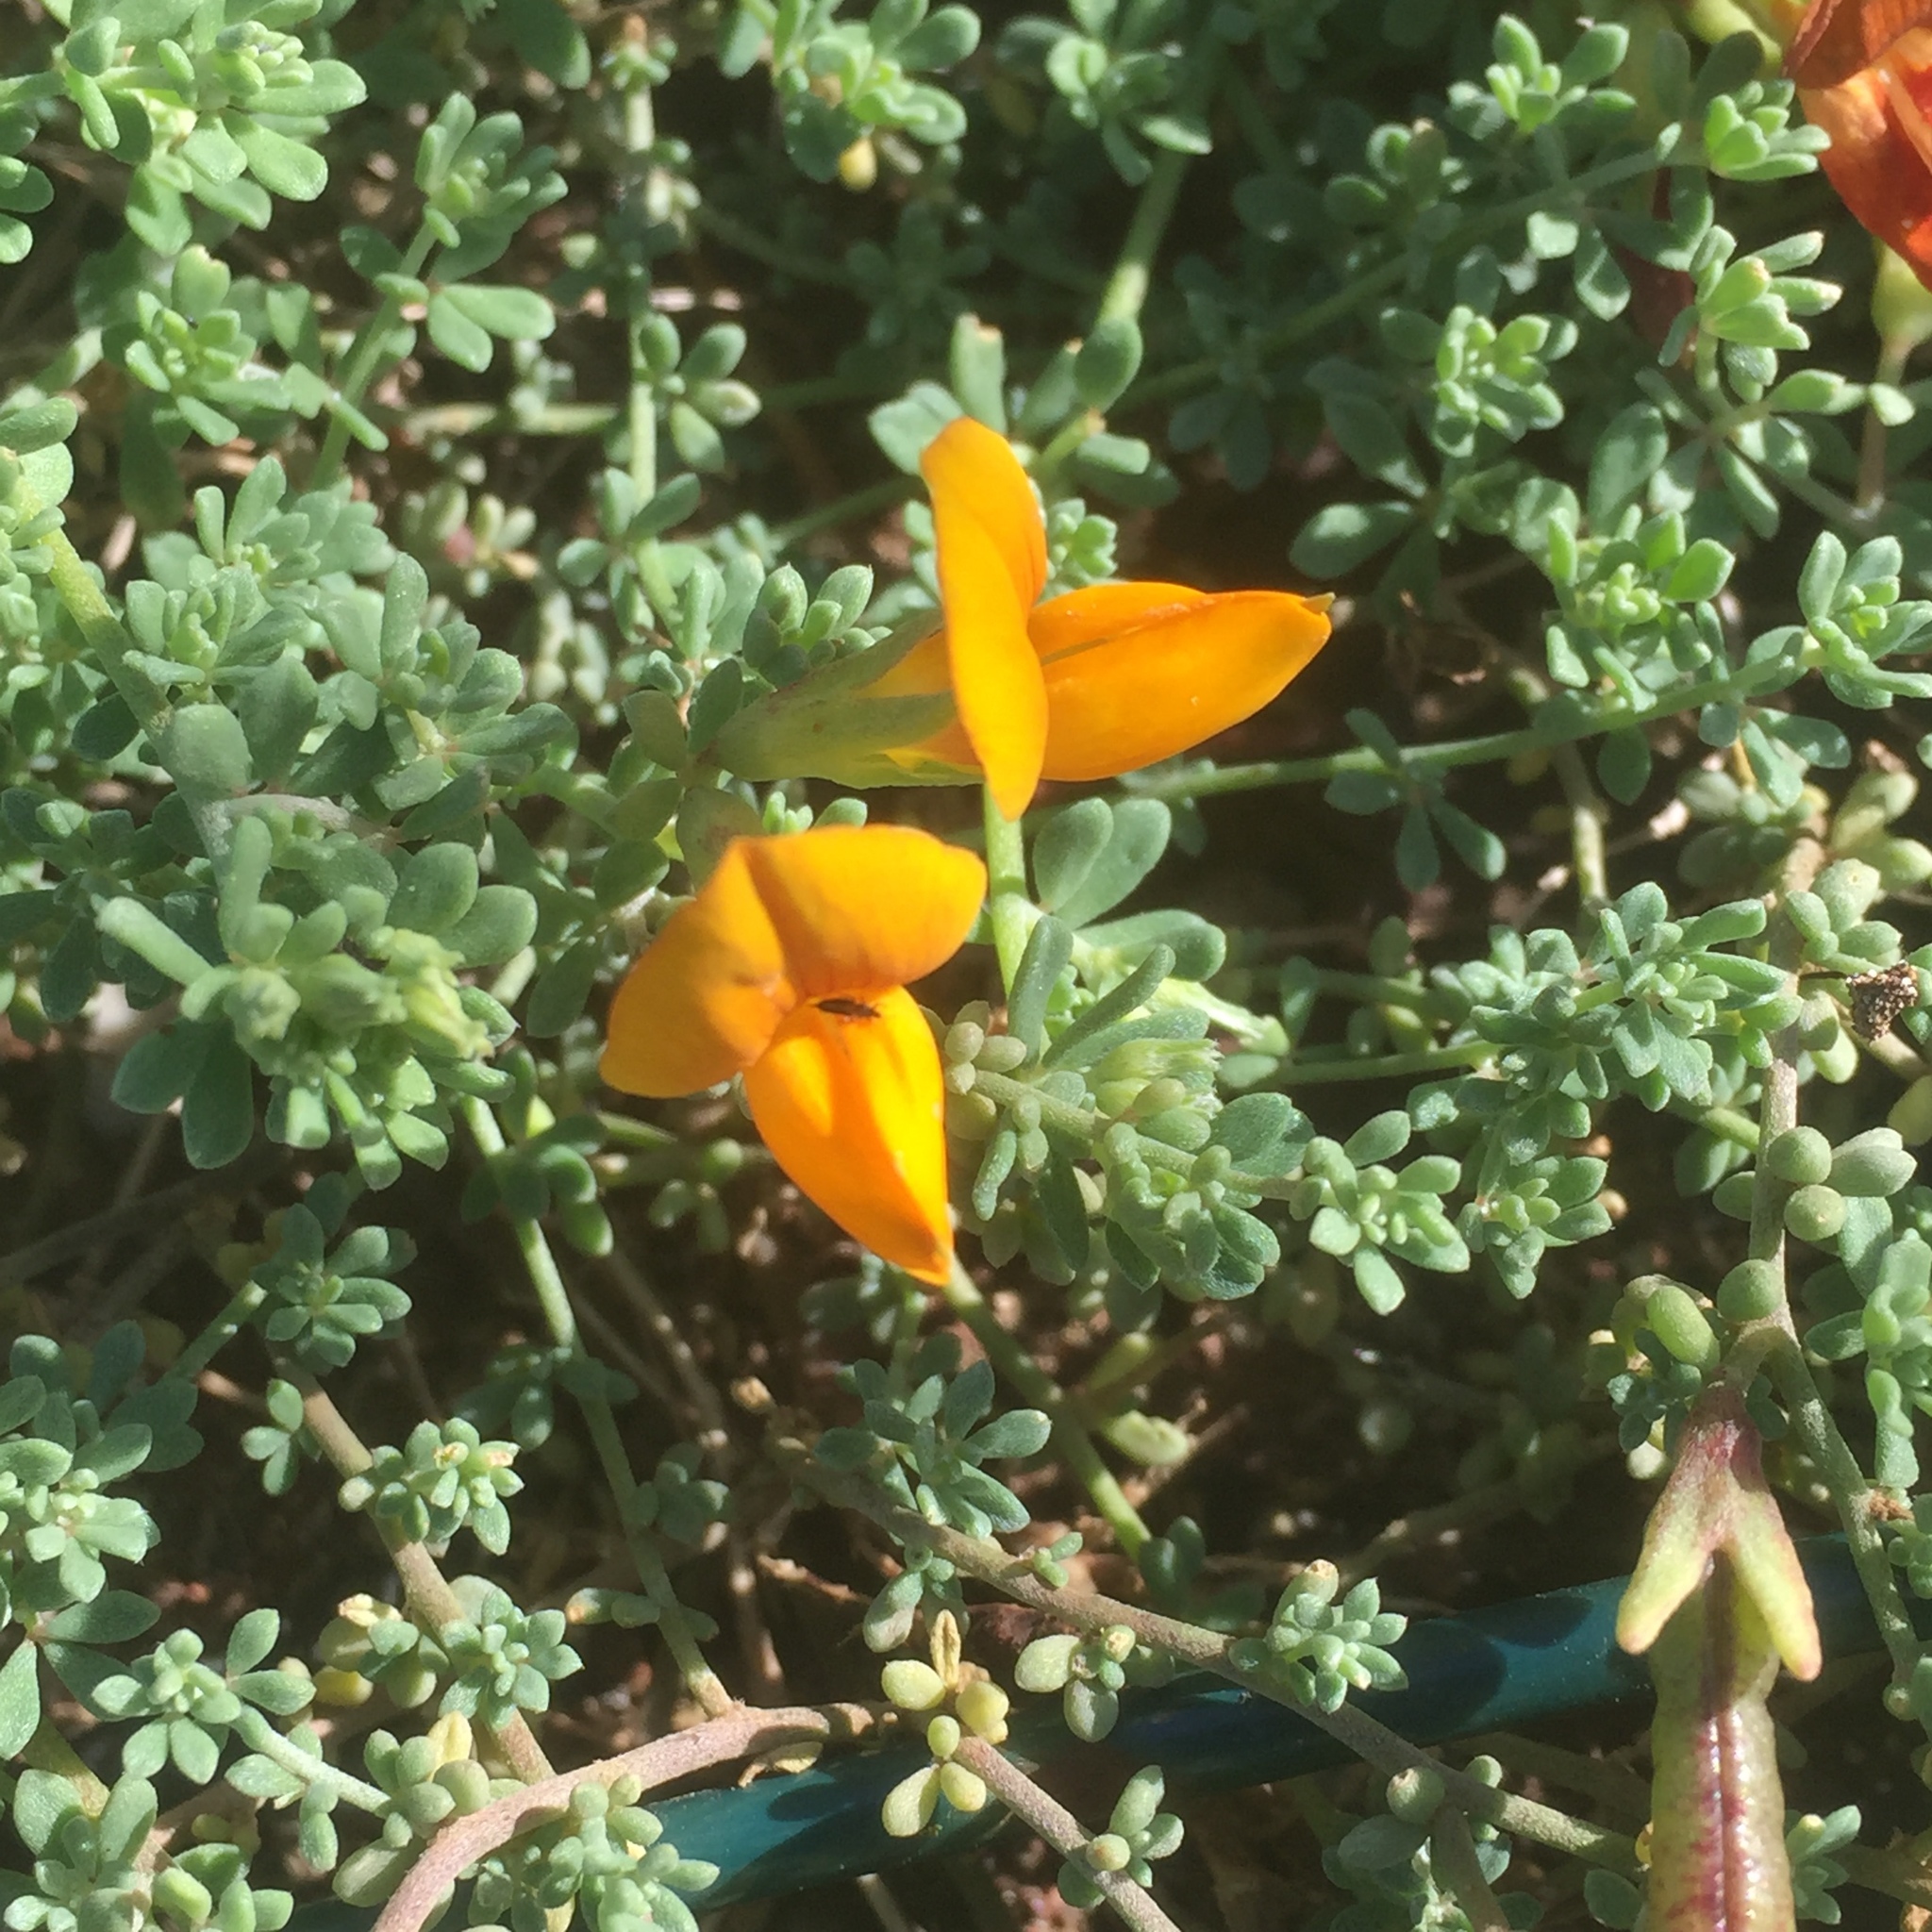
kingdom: Plantae
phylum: Tracheophyta
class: Magnoliopsida
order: Fabales
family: Fabaceae
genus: Lotus
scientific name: Lotus glaucus
